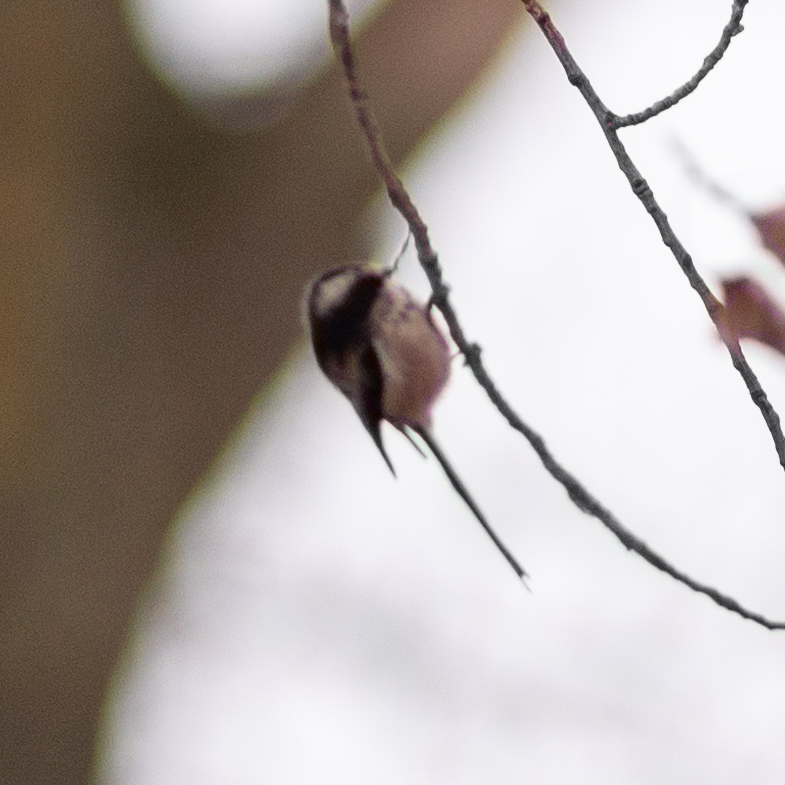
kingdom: Animalia
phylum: Chordata
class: Aves
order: Passeriformes
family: Aegithalidae
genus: Aegithalos
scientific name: Aegithalos caudatus
